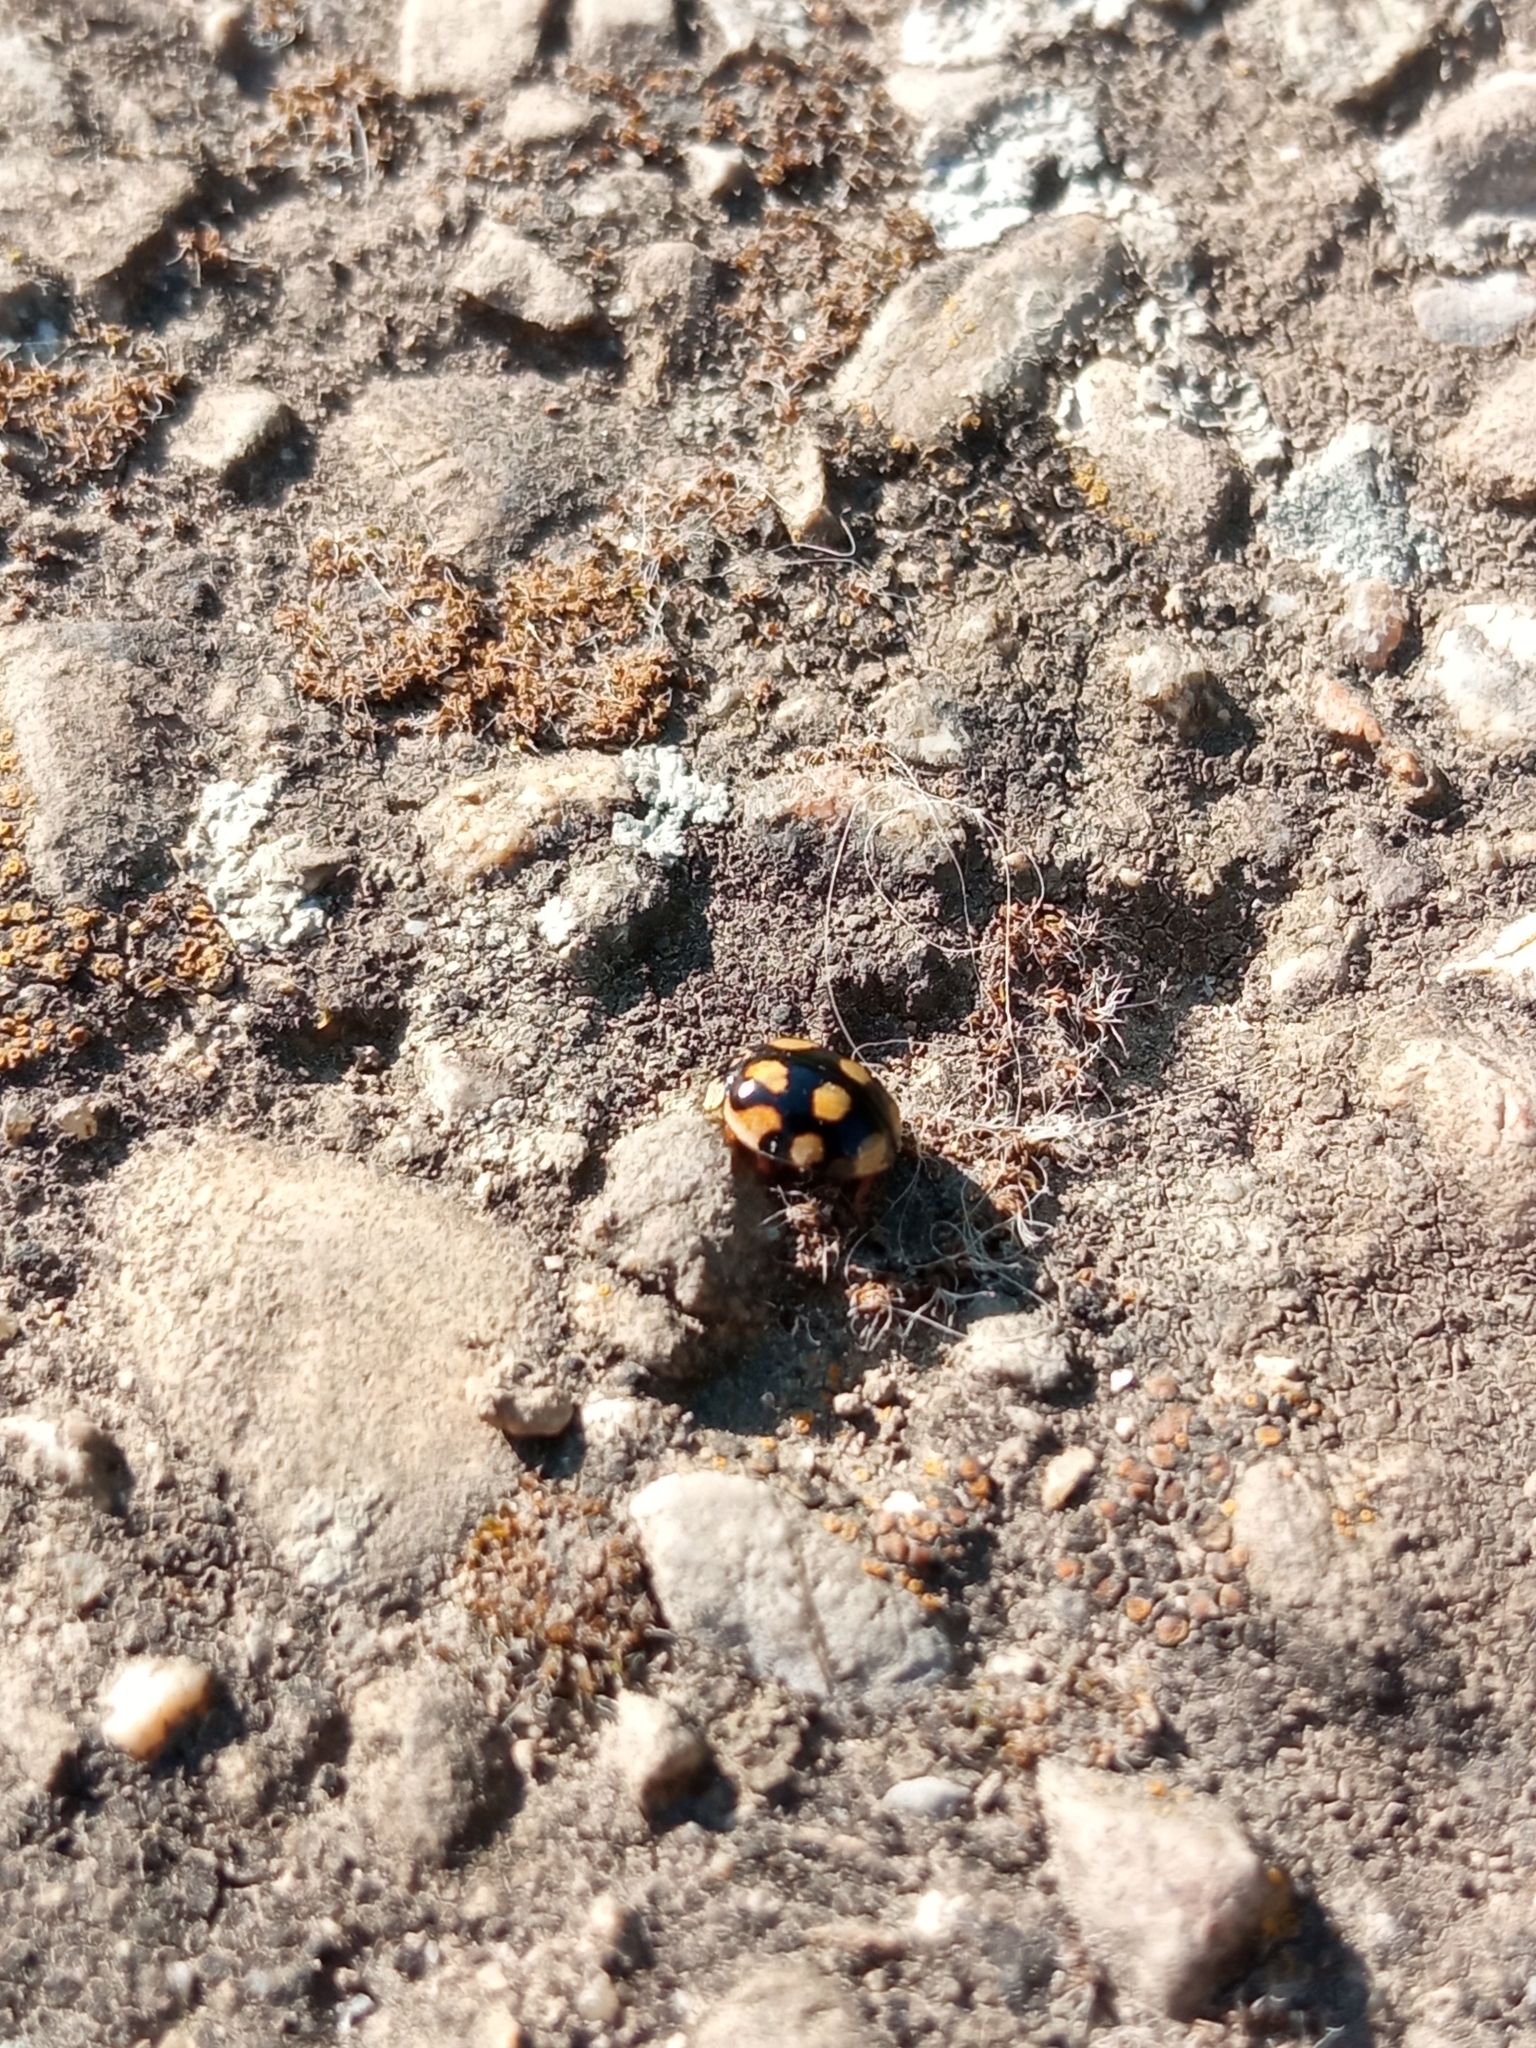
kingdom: Animalia
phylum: Arthropoda
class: Insecta
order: Coleoptera
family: Coccinellidae
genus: Adalia
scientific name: Adalia decempunctata
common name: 10-spot ladybird
